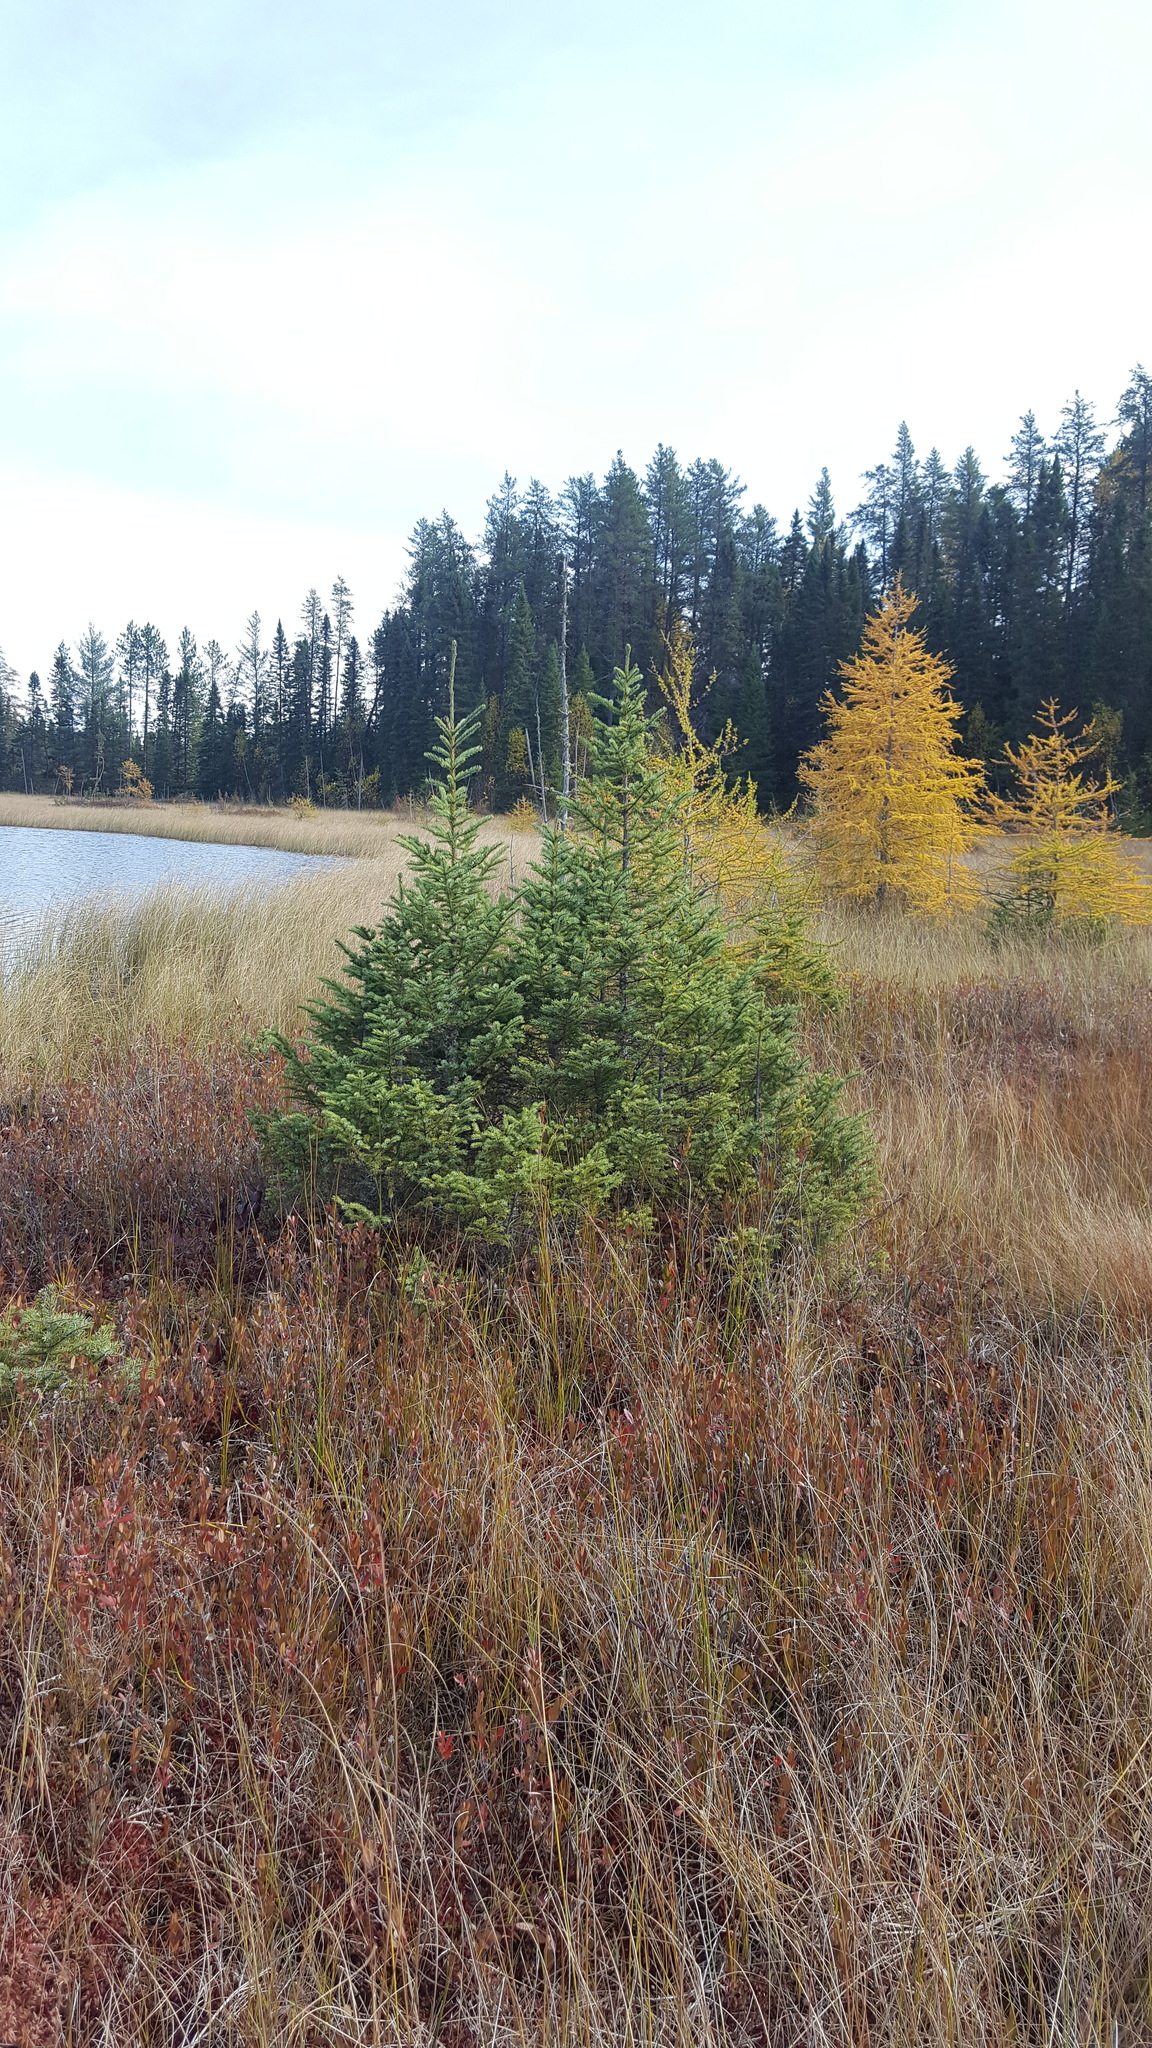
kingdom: Plantae
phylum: Tracheophyta
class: Pinopsida
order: Pinales
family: Pinaceae
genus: Picea
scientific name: Picea mariana
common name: Black spruce
